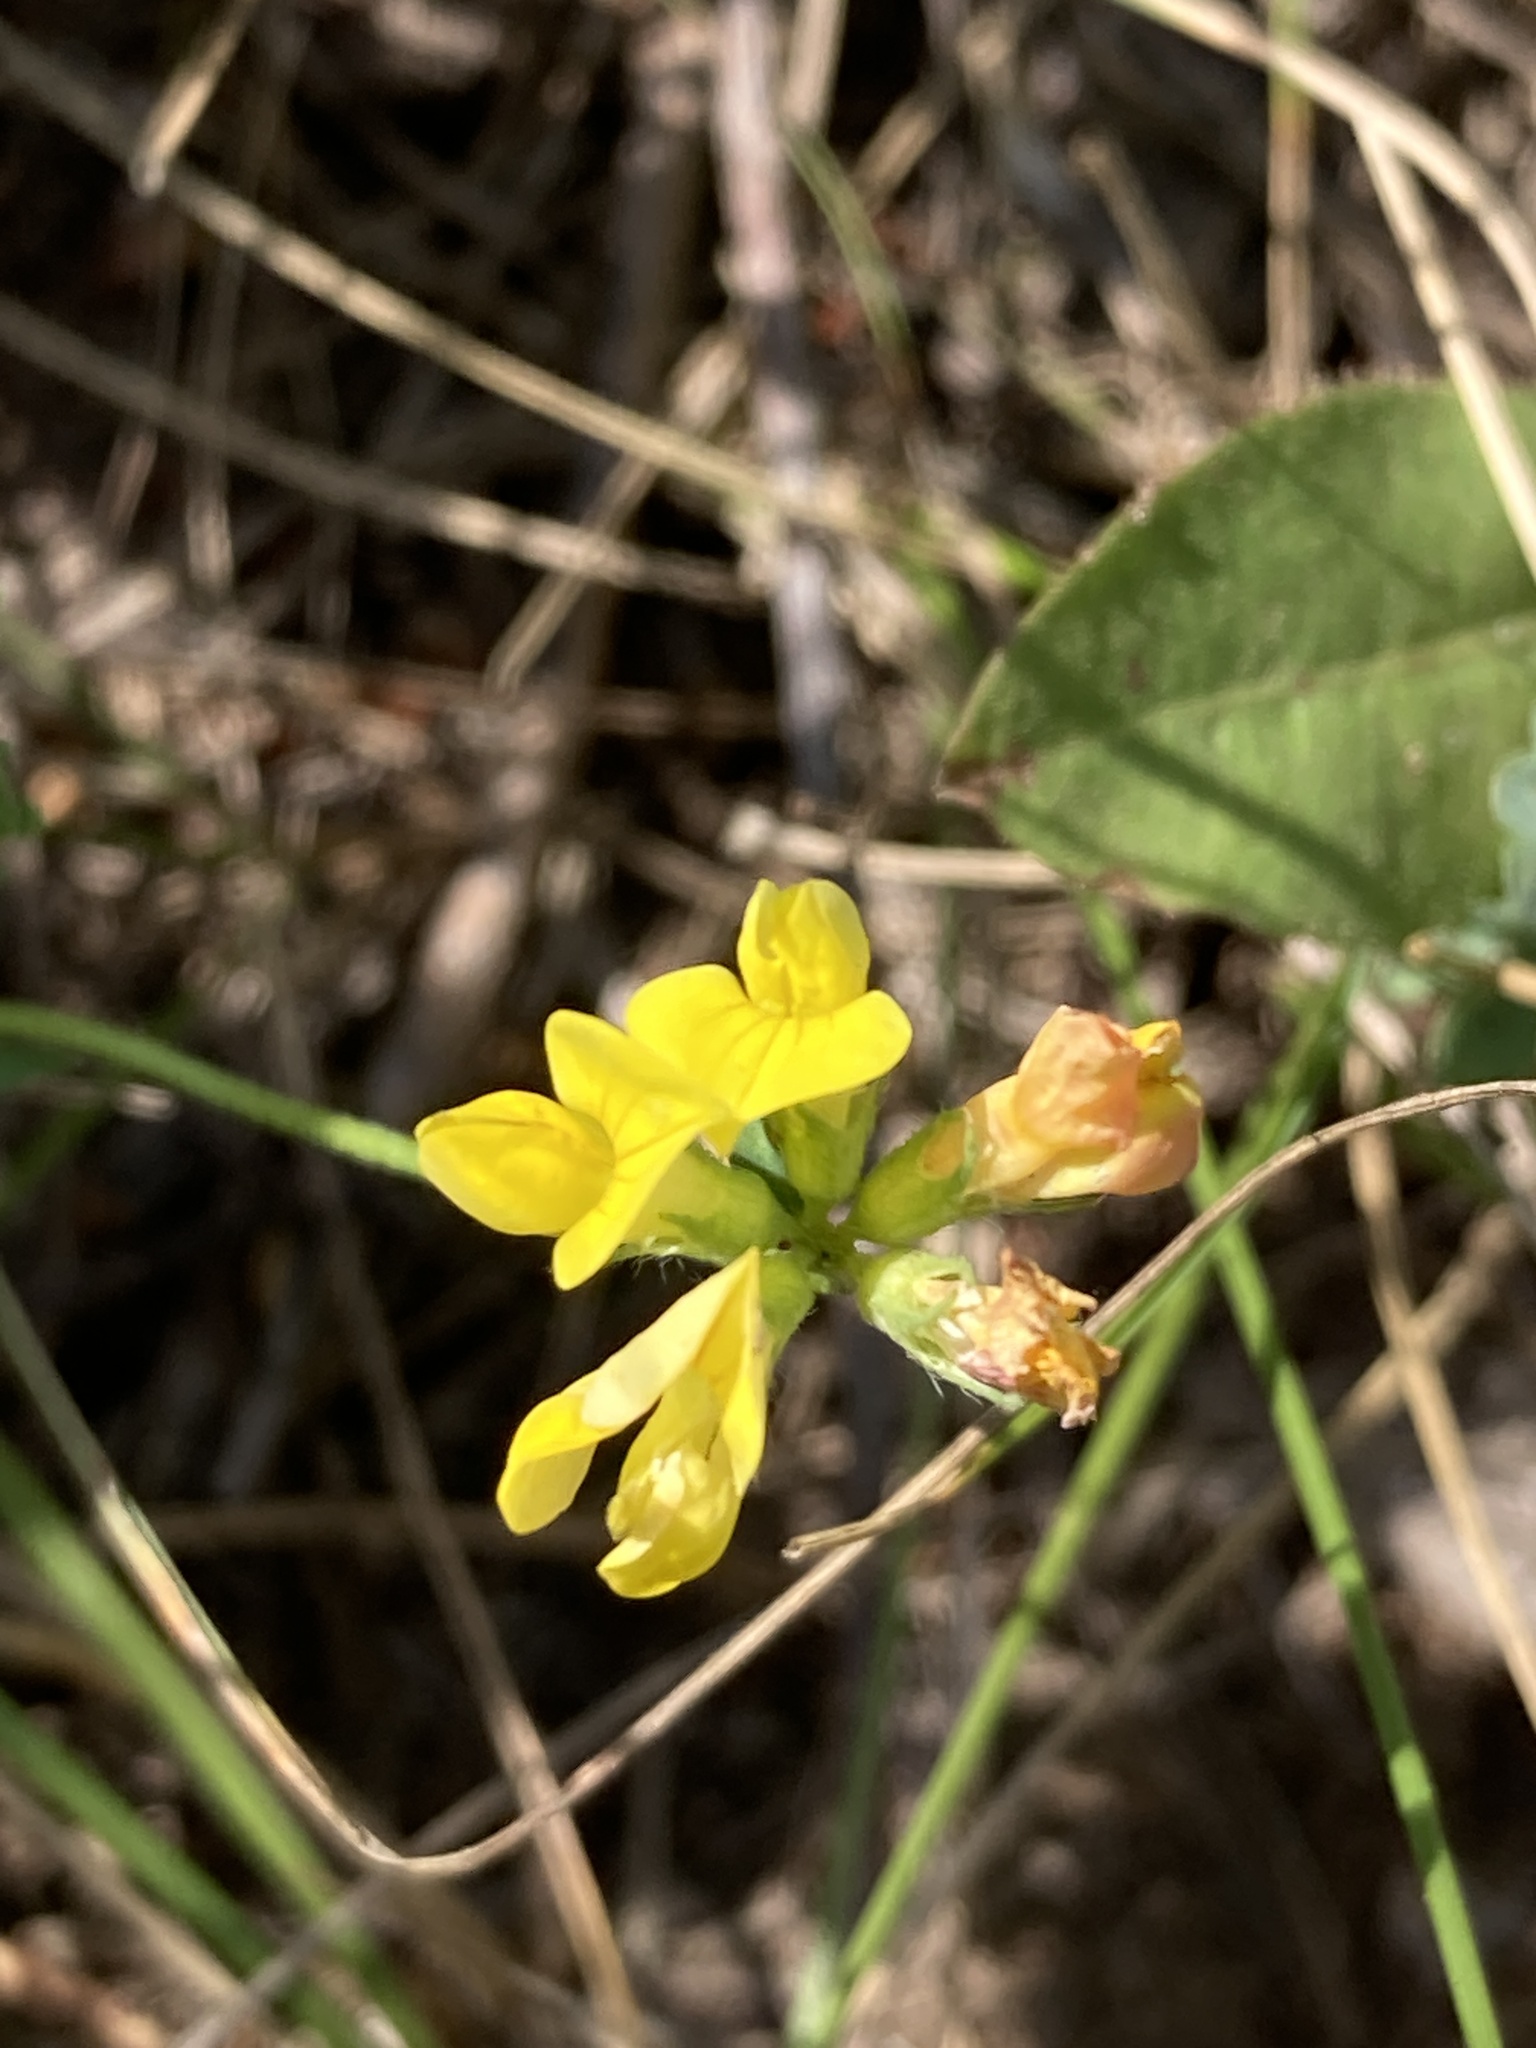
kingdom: Plantae
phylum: Tracheophyta
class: Magnoliopsida
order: Fabales
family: Fabaceae
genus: Lotus
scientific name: Lotus corniculatus
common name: Common bird's-foot-trefoil
